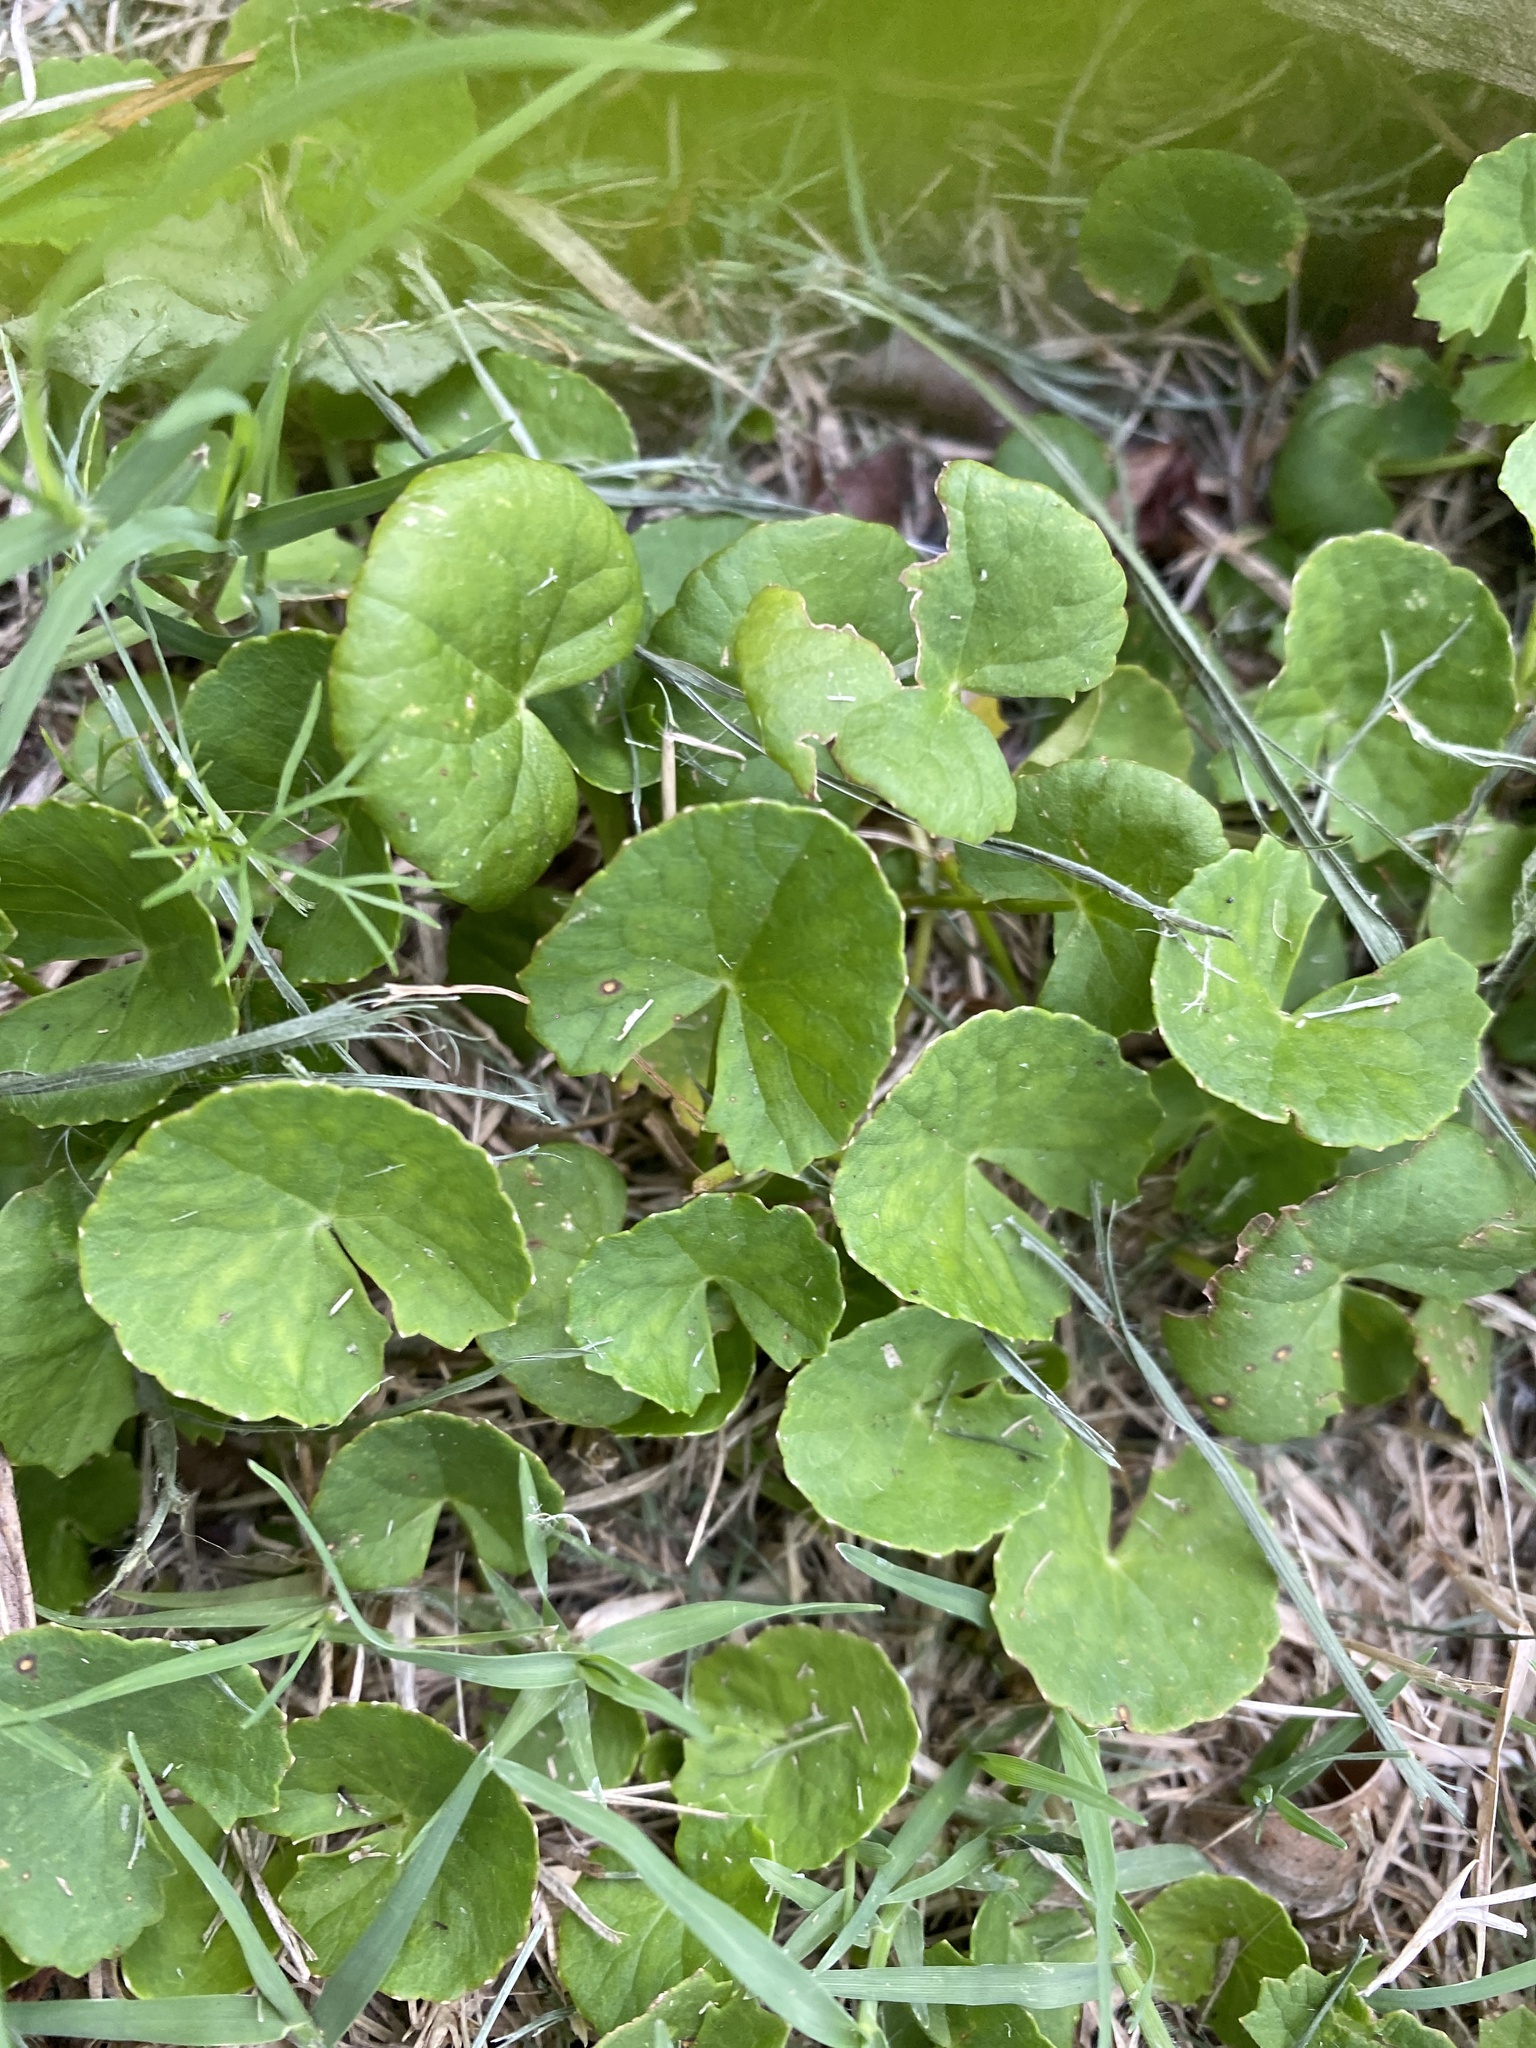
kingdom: Plantae
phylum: Tracheophyta
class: Magnoliopsida
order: Apiales
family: Apiaceae
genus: Centella
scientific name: Centella asiatica
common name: Spadeleaf
